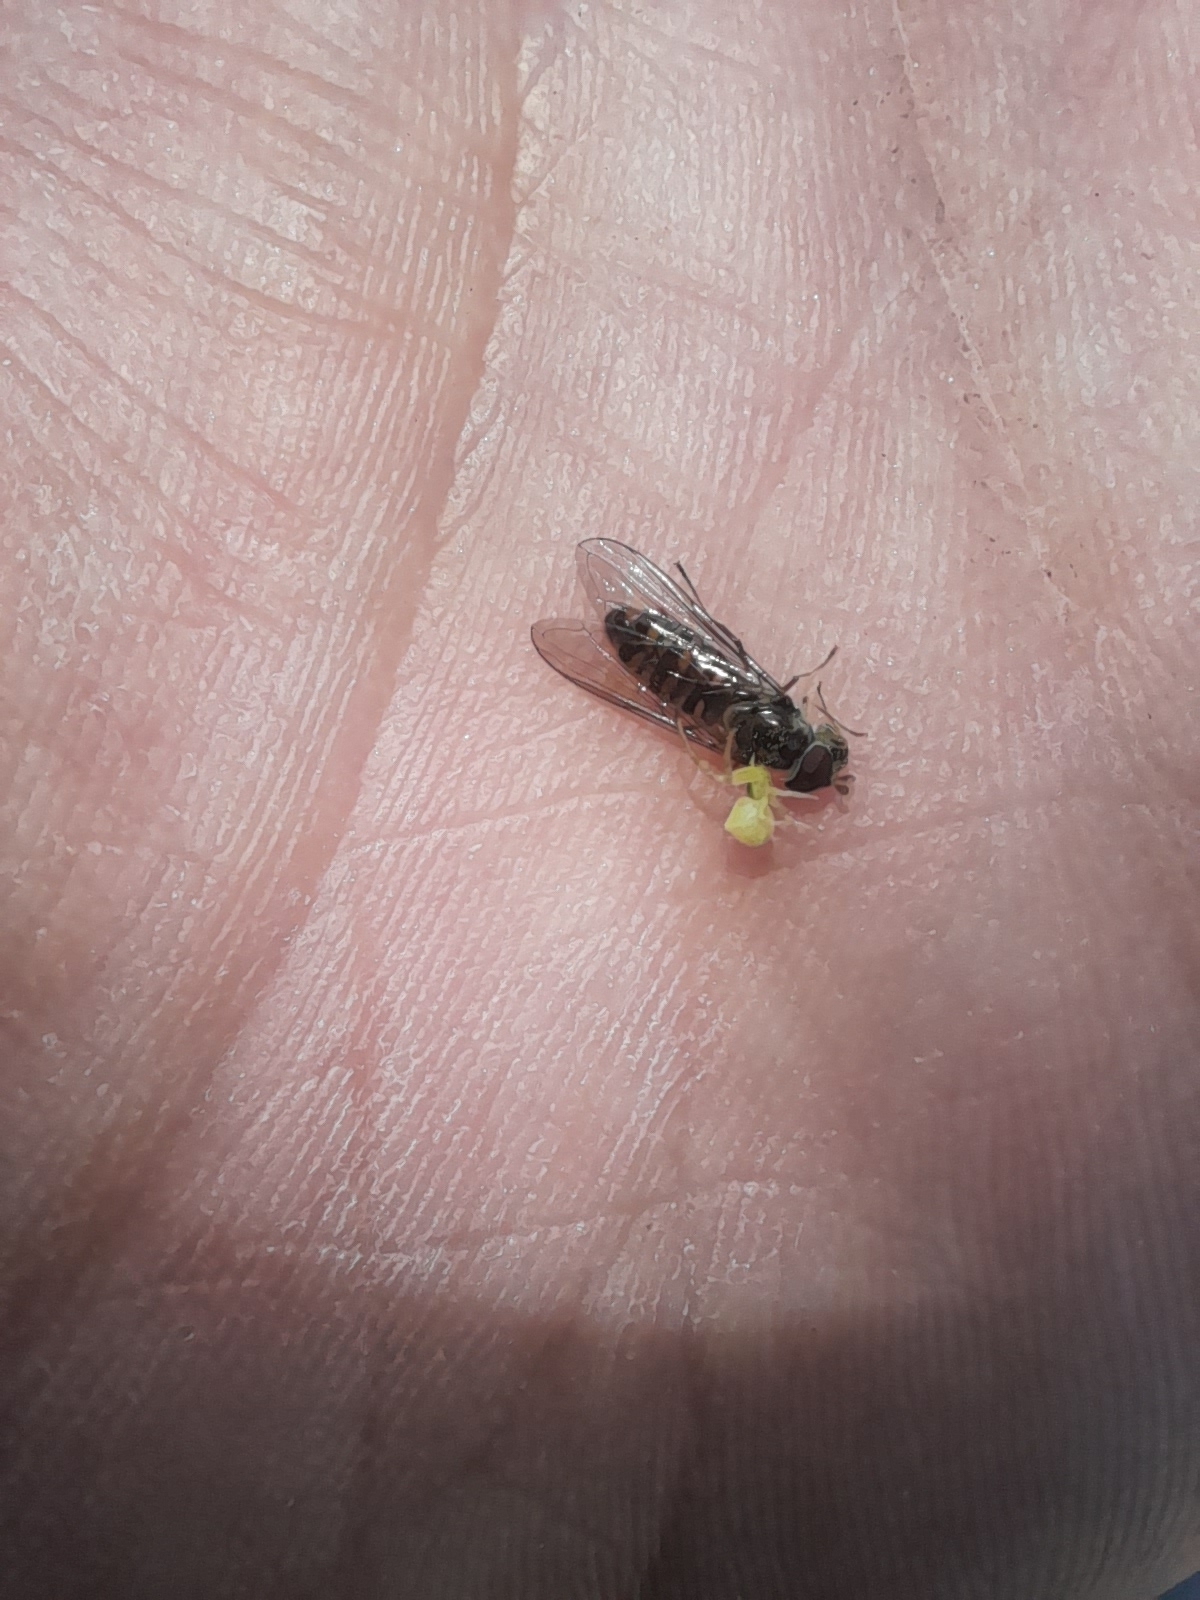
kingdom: Animalia
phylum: Arthropoda
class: Arachnida
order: Araneae
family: Thomisidae
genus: Thomisus
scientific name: Thomisus onustus
